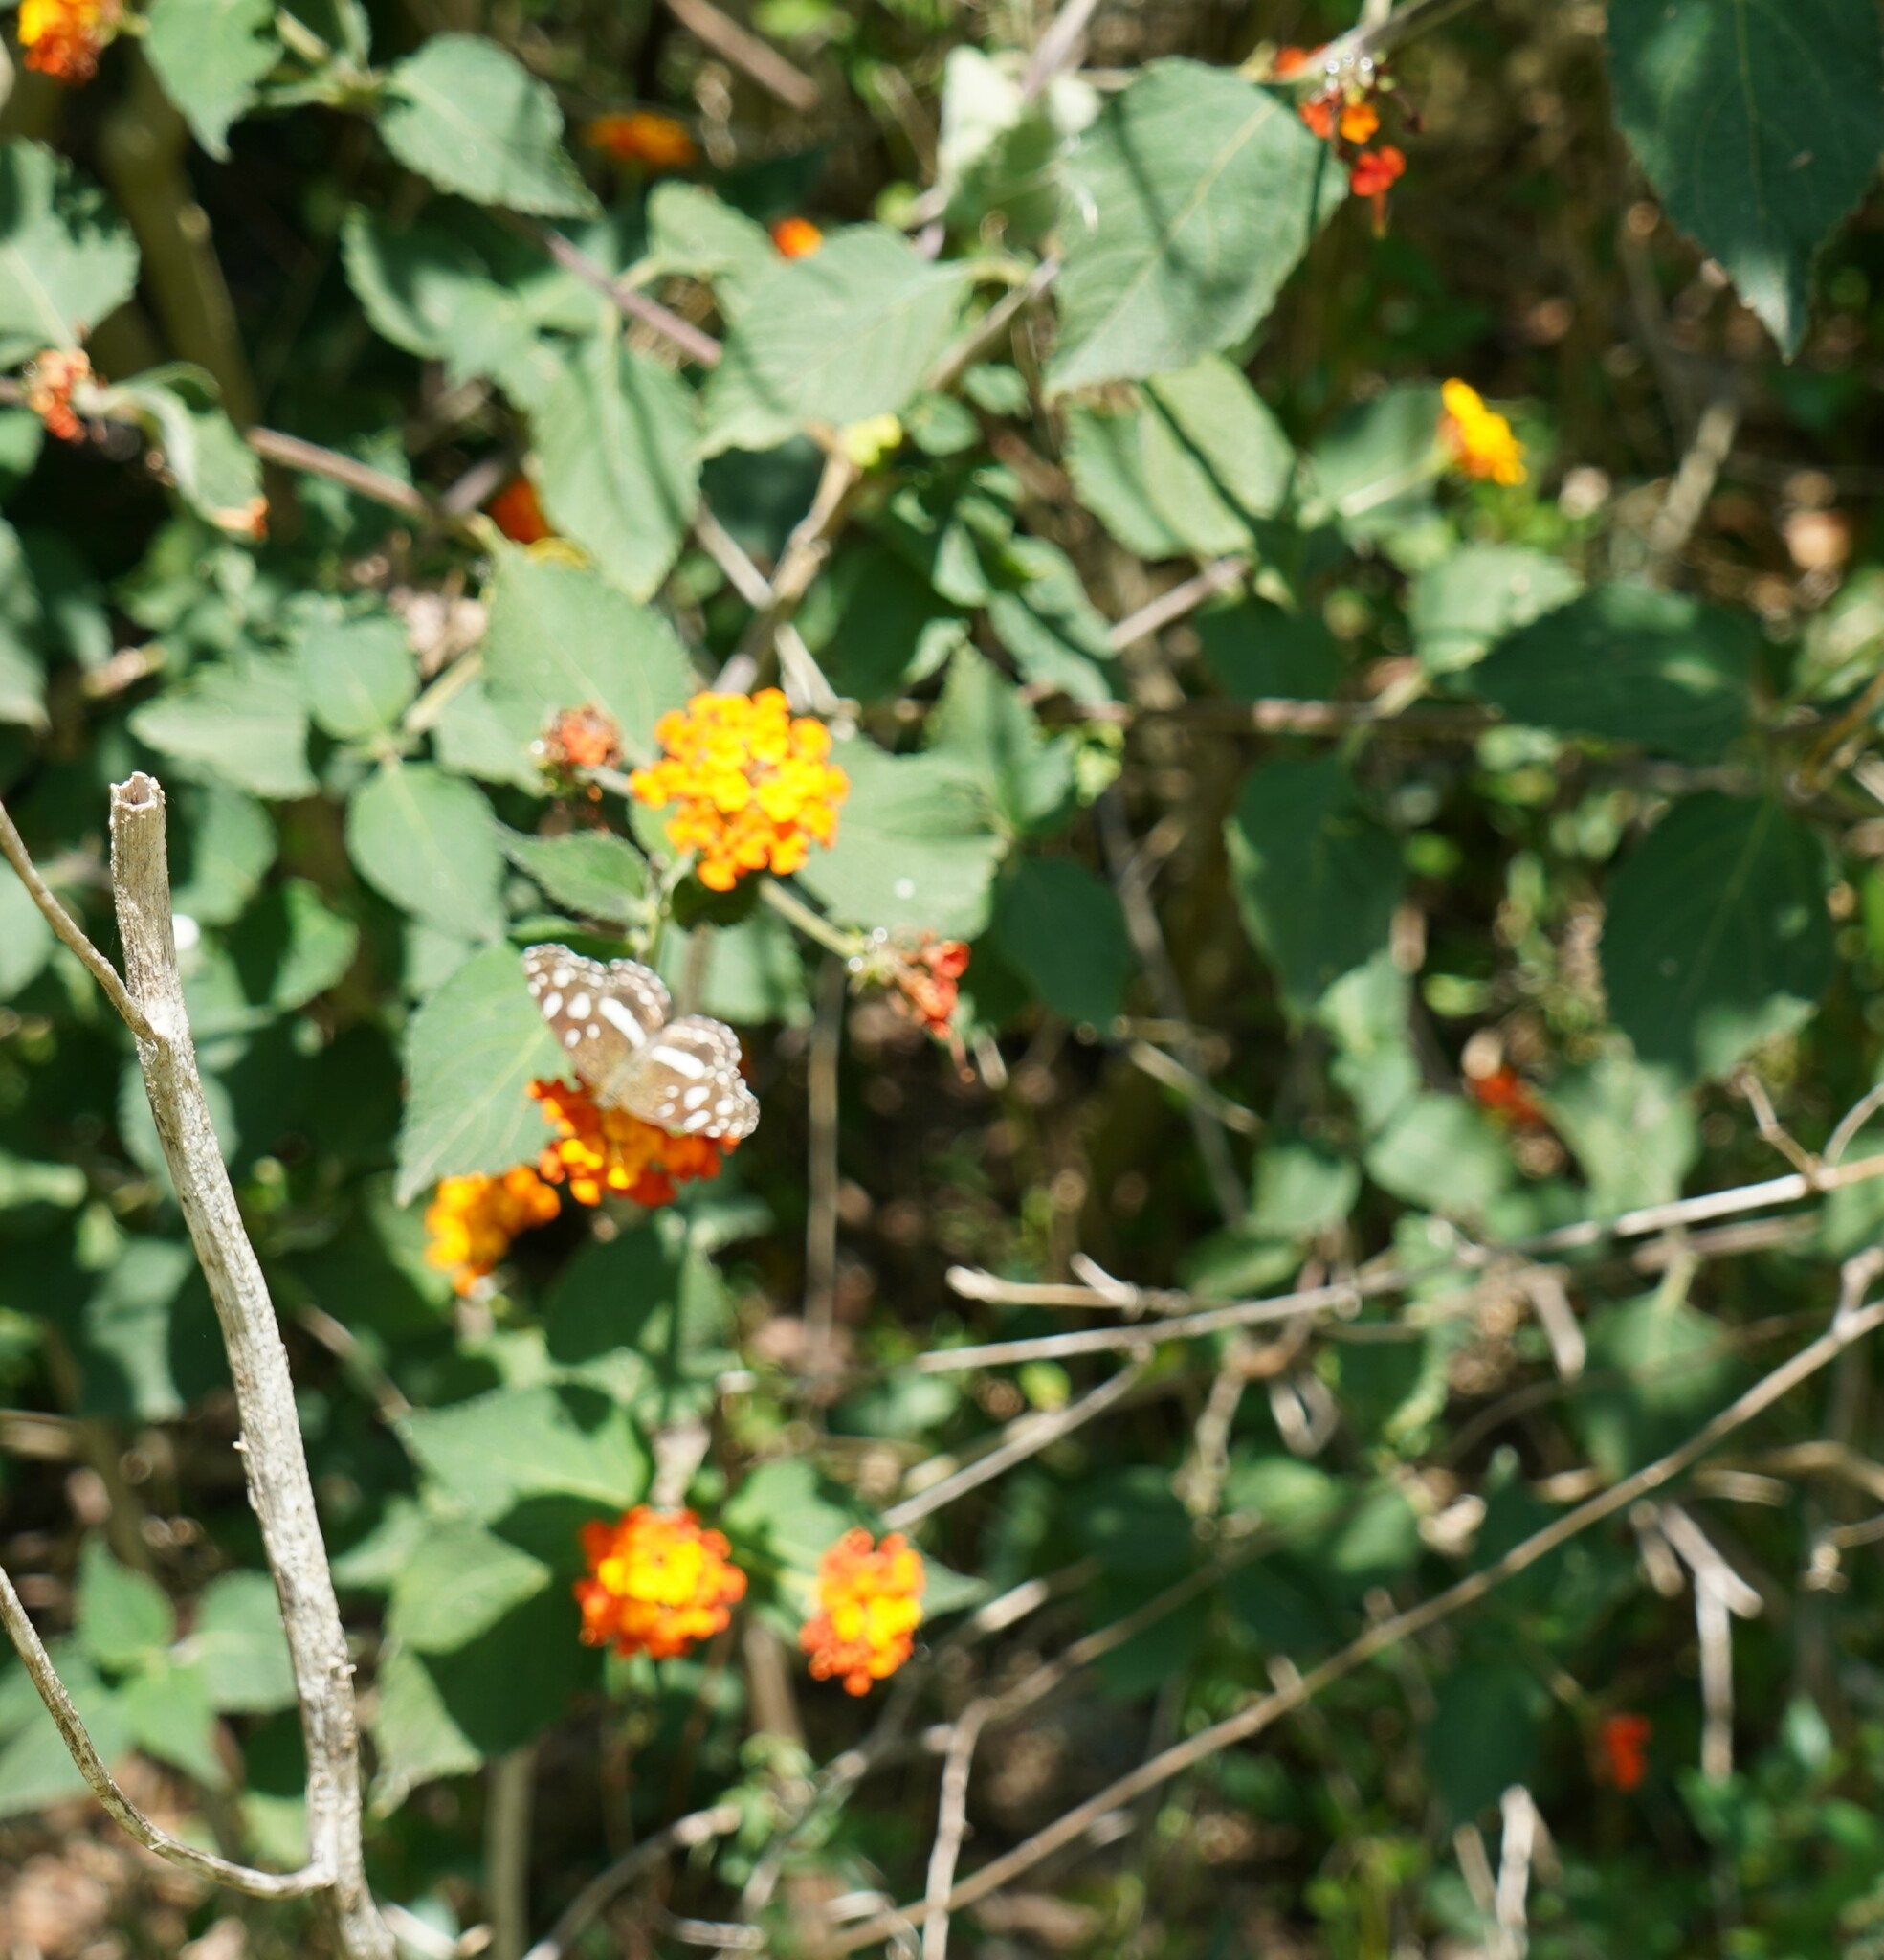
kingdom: Plantae
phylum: Tracheophyta
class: Magnoliopsida
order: Lamiales
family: Verbenaceae
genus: Lantana
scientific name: Lantana camara
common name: Lantana
